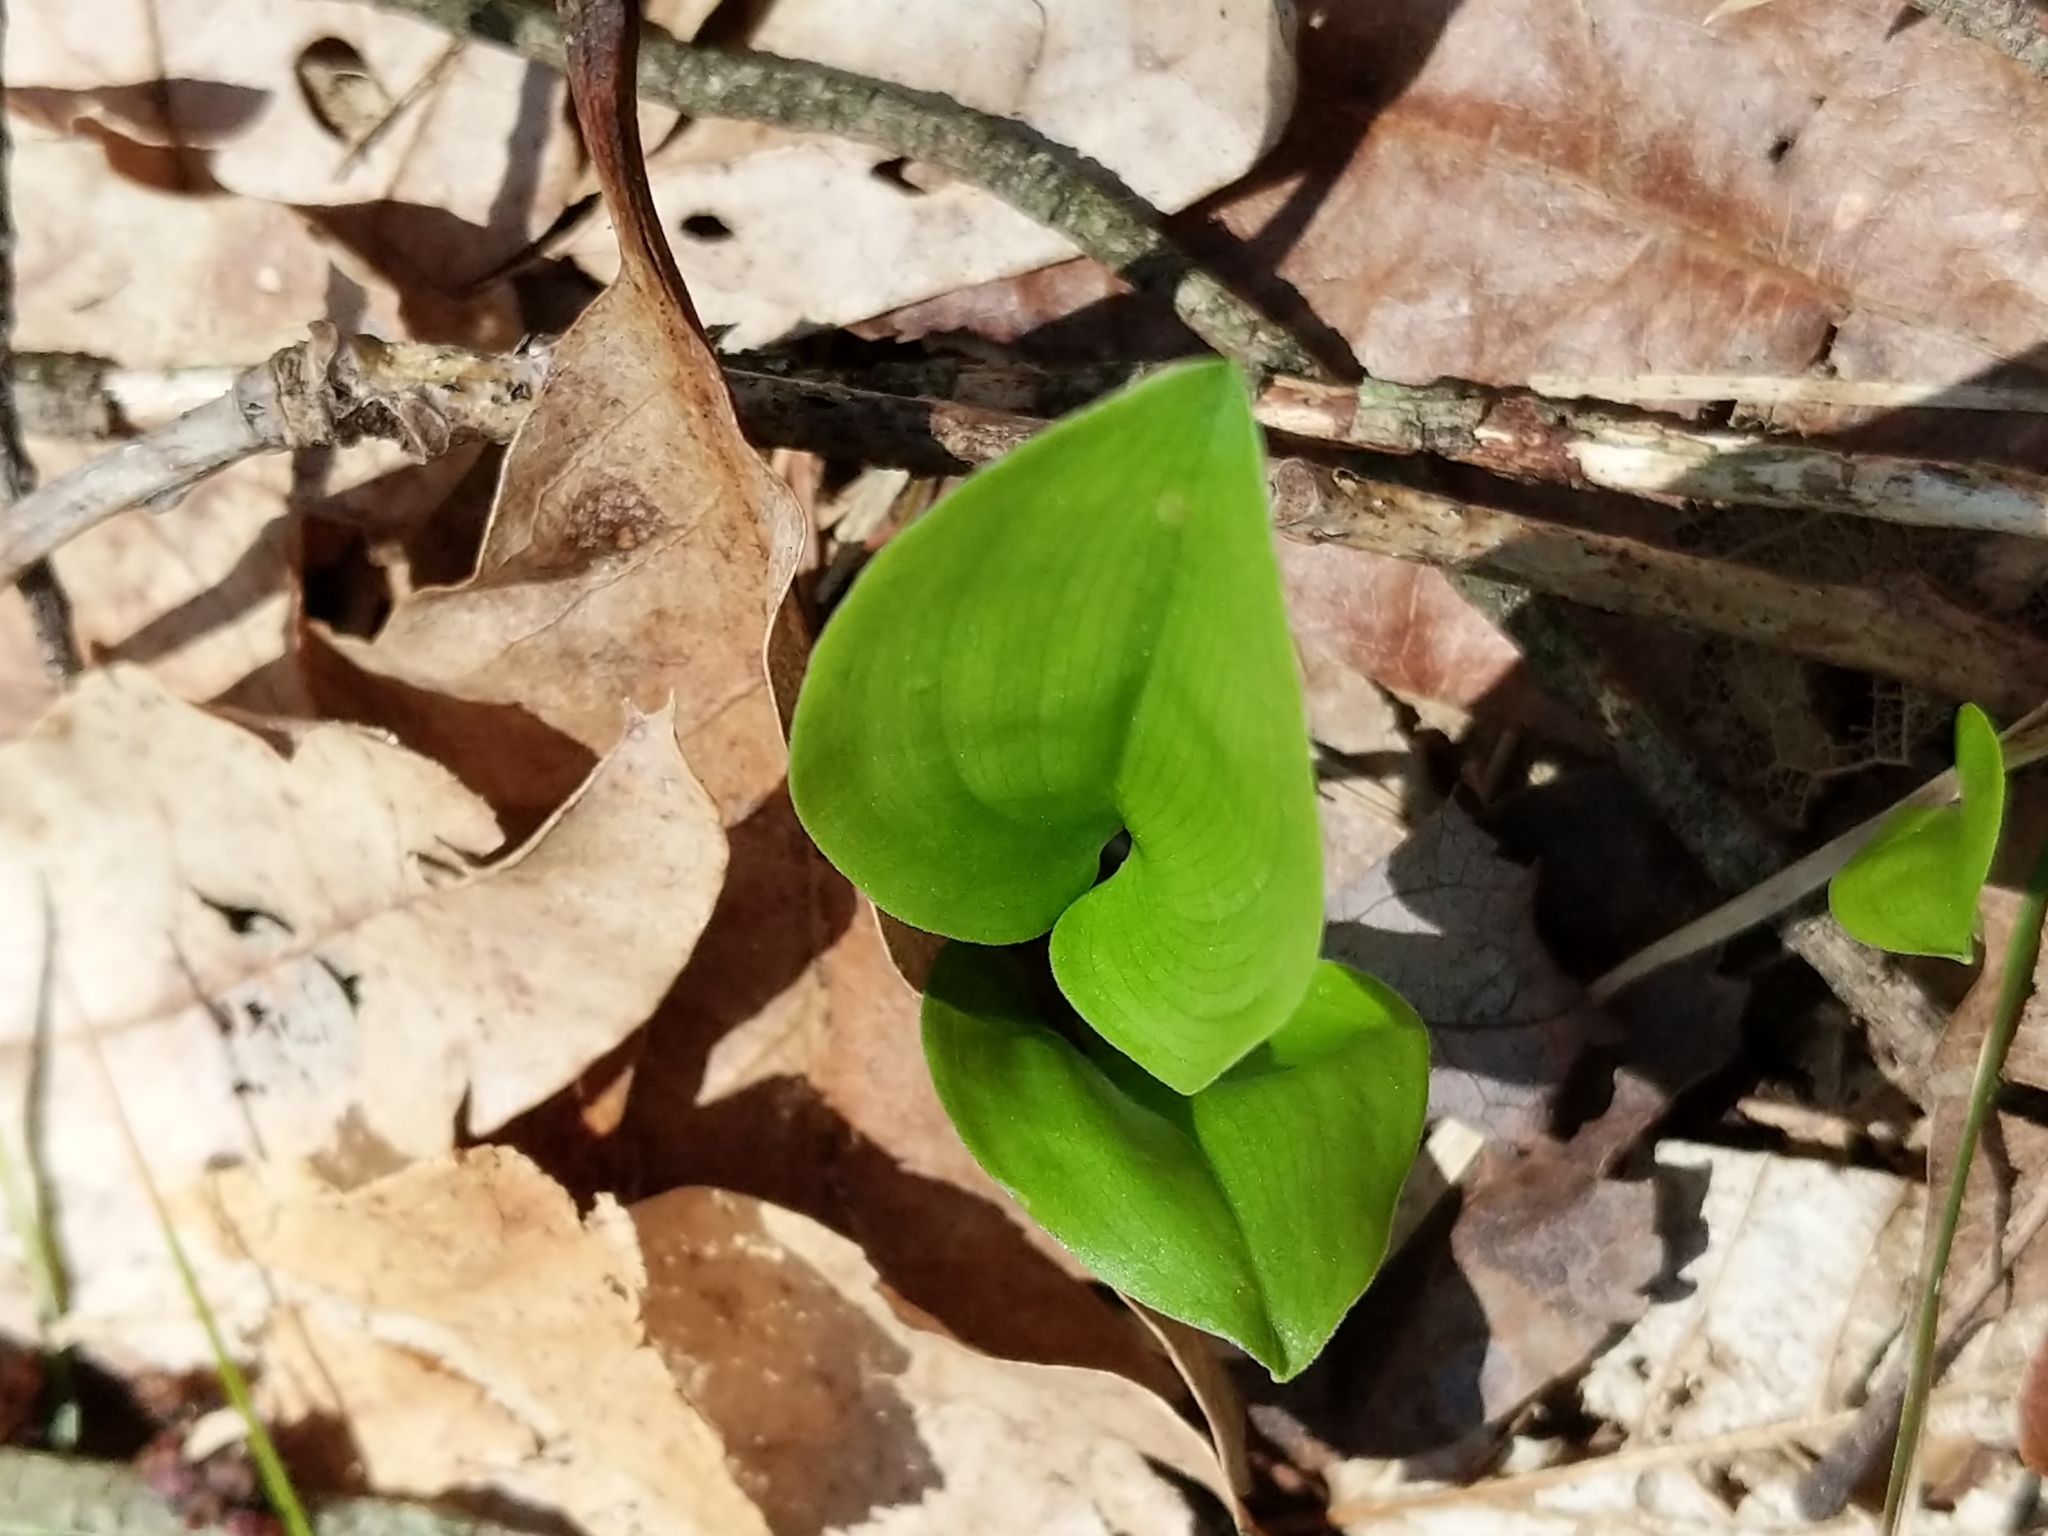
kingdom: Plantae
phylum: Tracheophyta
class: Liliopsida
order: Asparagales
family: Asparagaceae
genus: Maianthemum
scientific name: Maianthemum canadense
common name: False lily-of-the-valley
